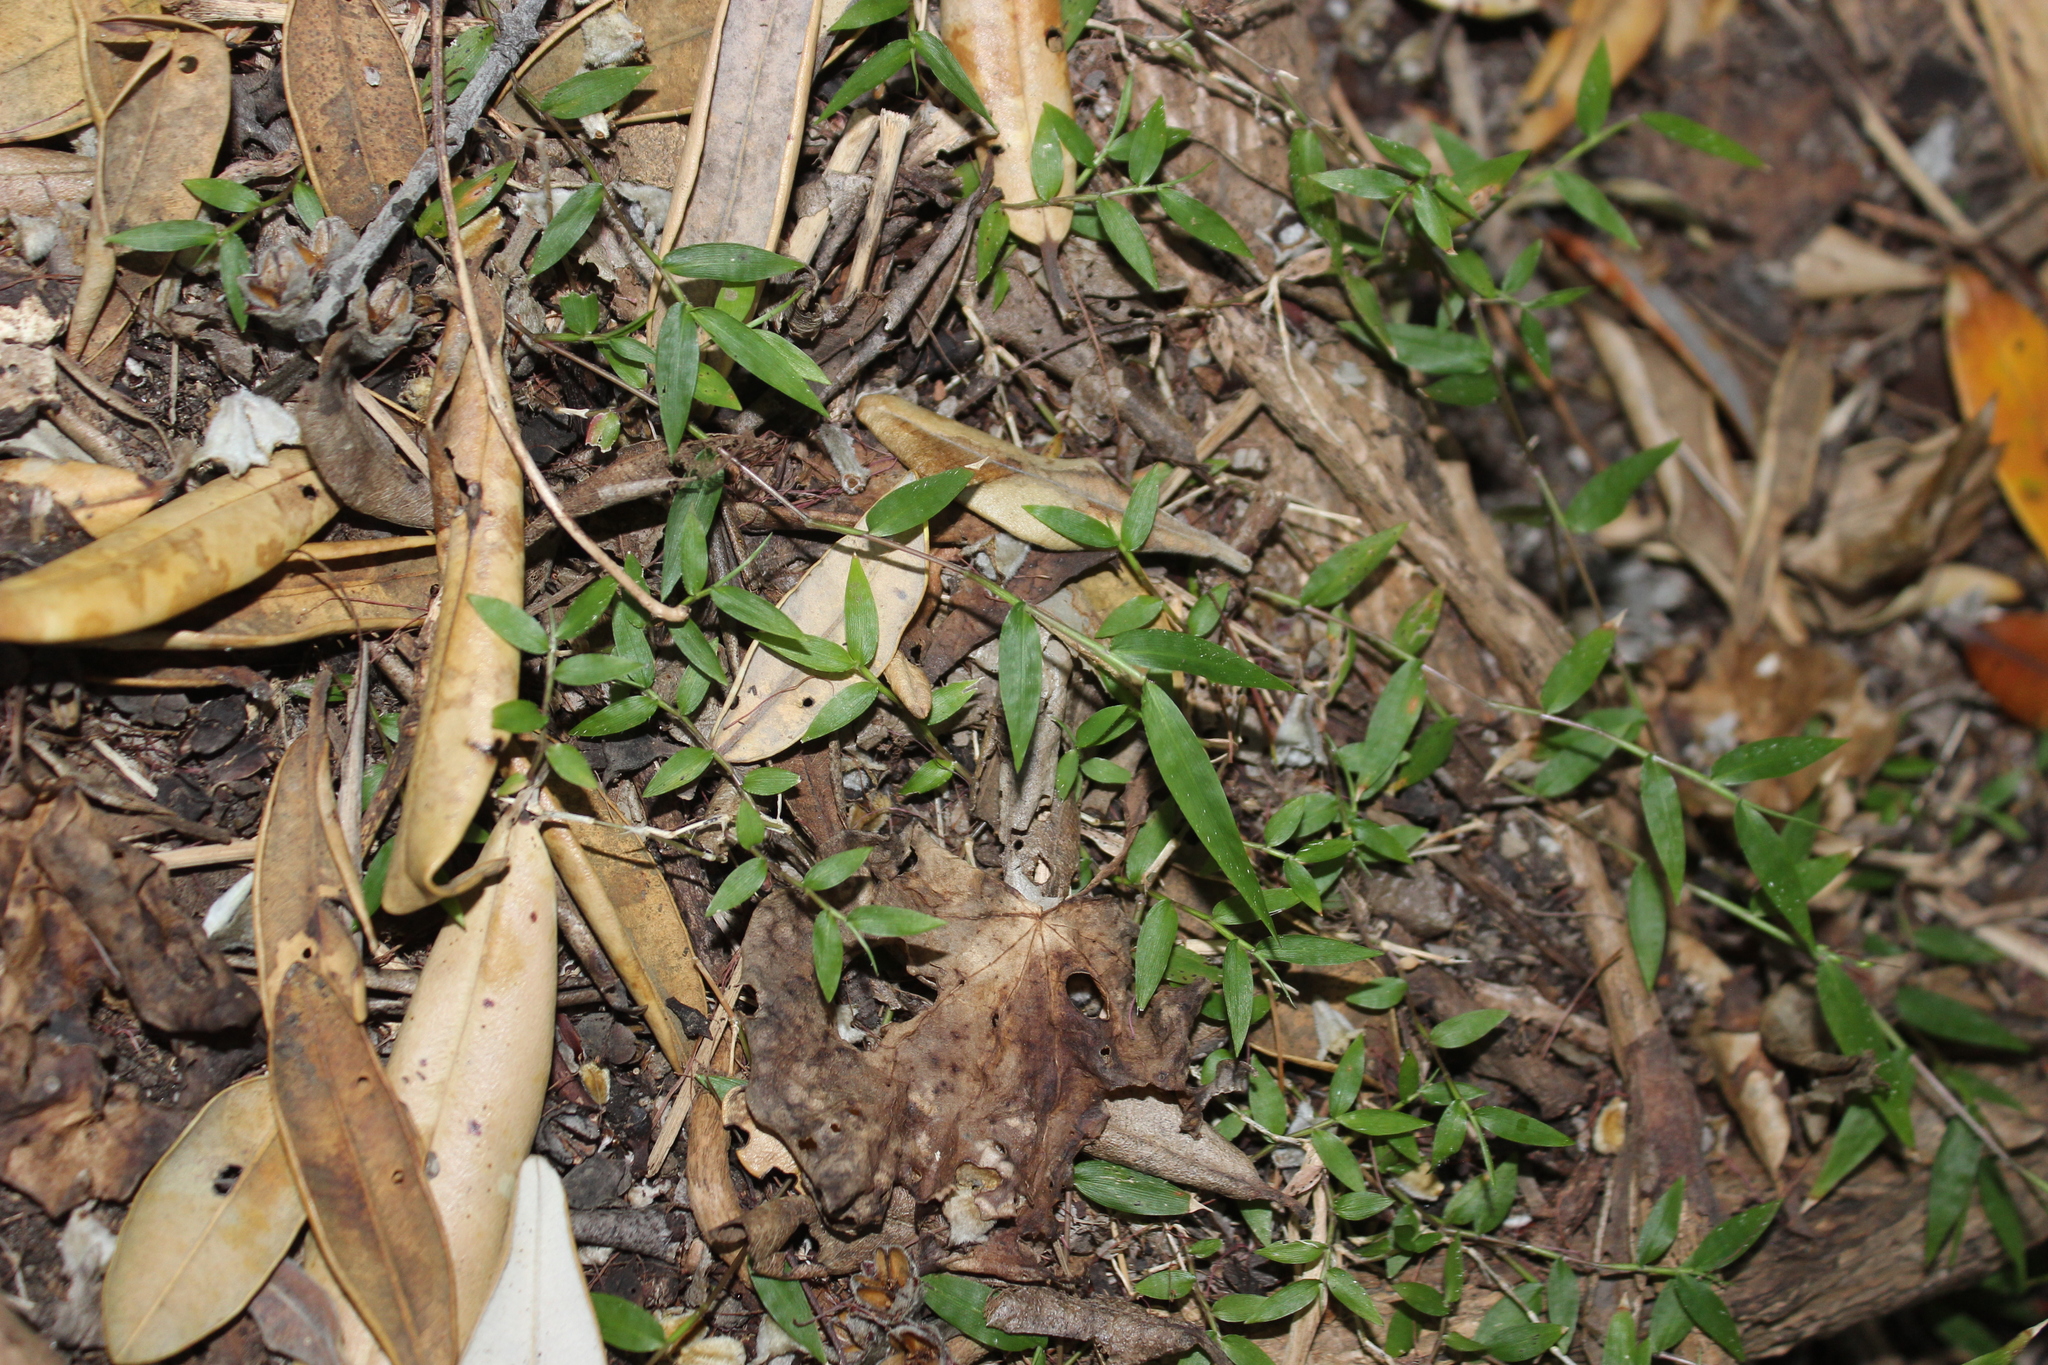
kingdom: Plantae
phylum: Tracheophyta
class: Liliopsida
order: Poales
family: Poaceae
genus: Oplismenus
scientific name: Oplismenus hirtellus
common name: Basketgrass
